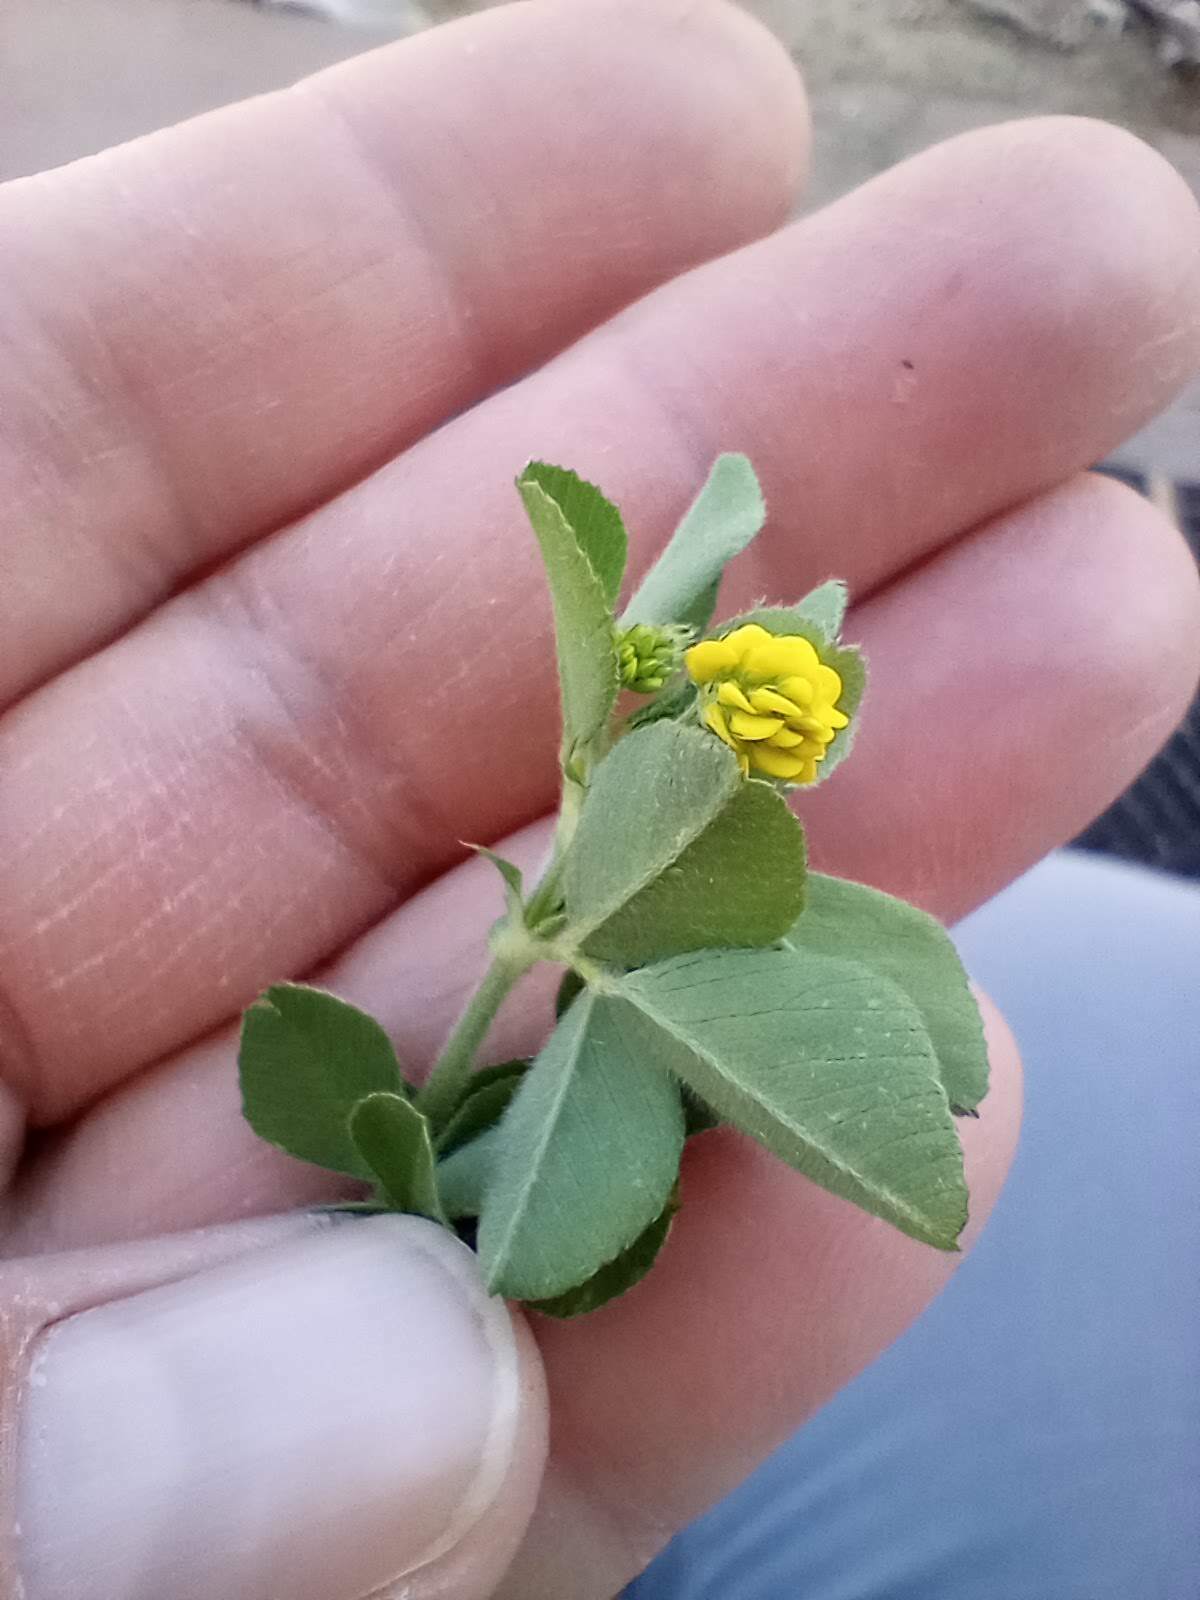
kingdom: Plantae
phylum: Tracheophyta
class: Magnoliopsida
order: Fabales
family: Fabaceae
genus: Medicago
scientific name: Medicago lupulina
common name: Black medick
